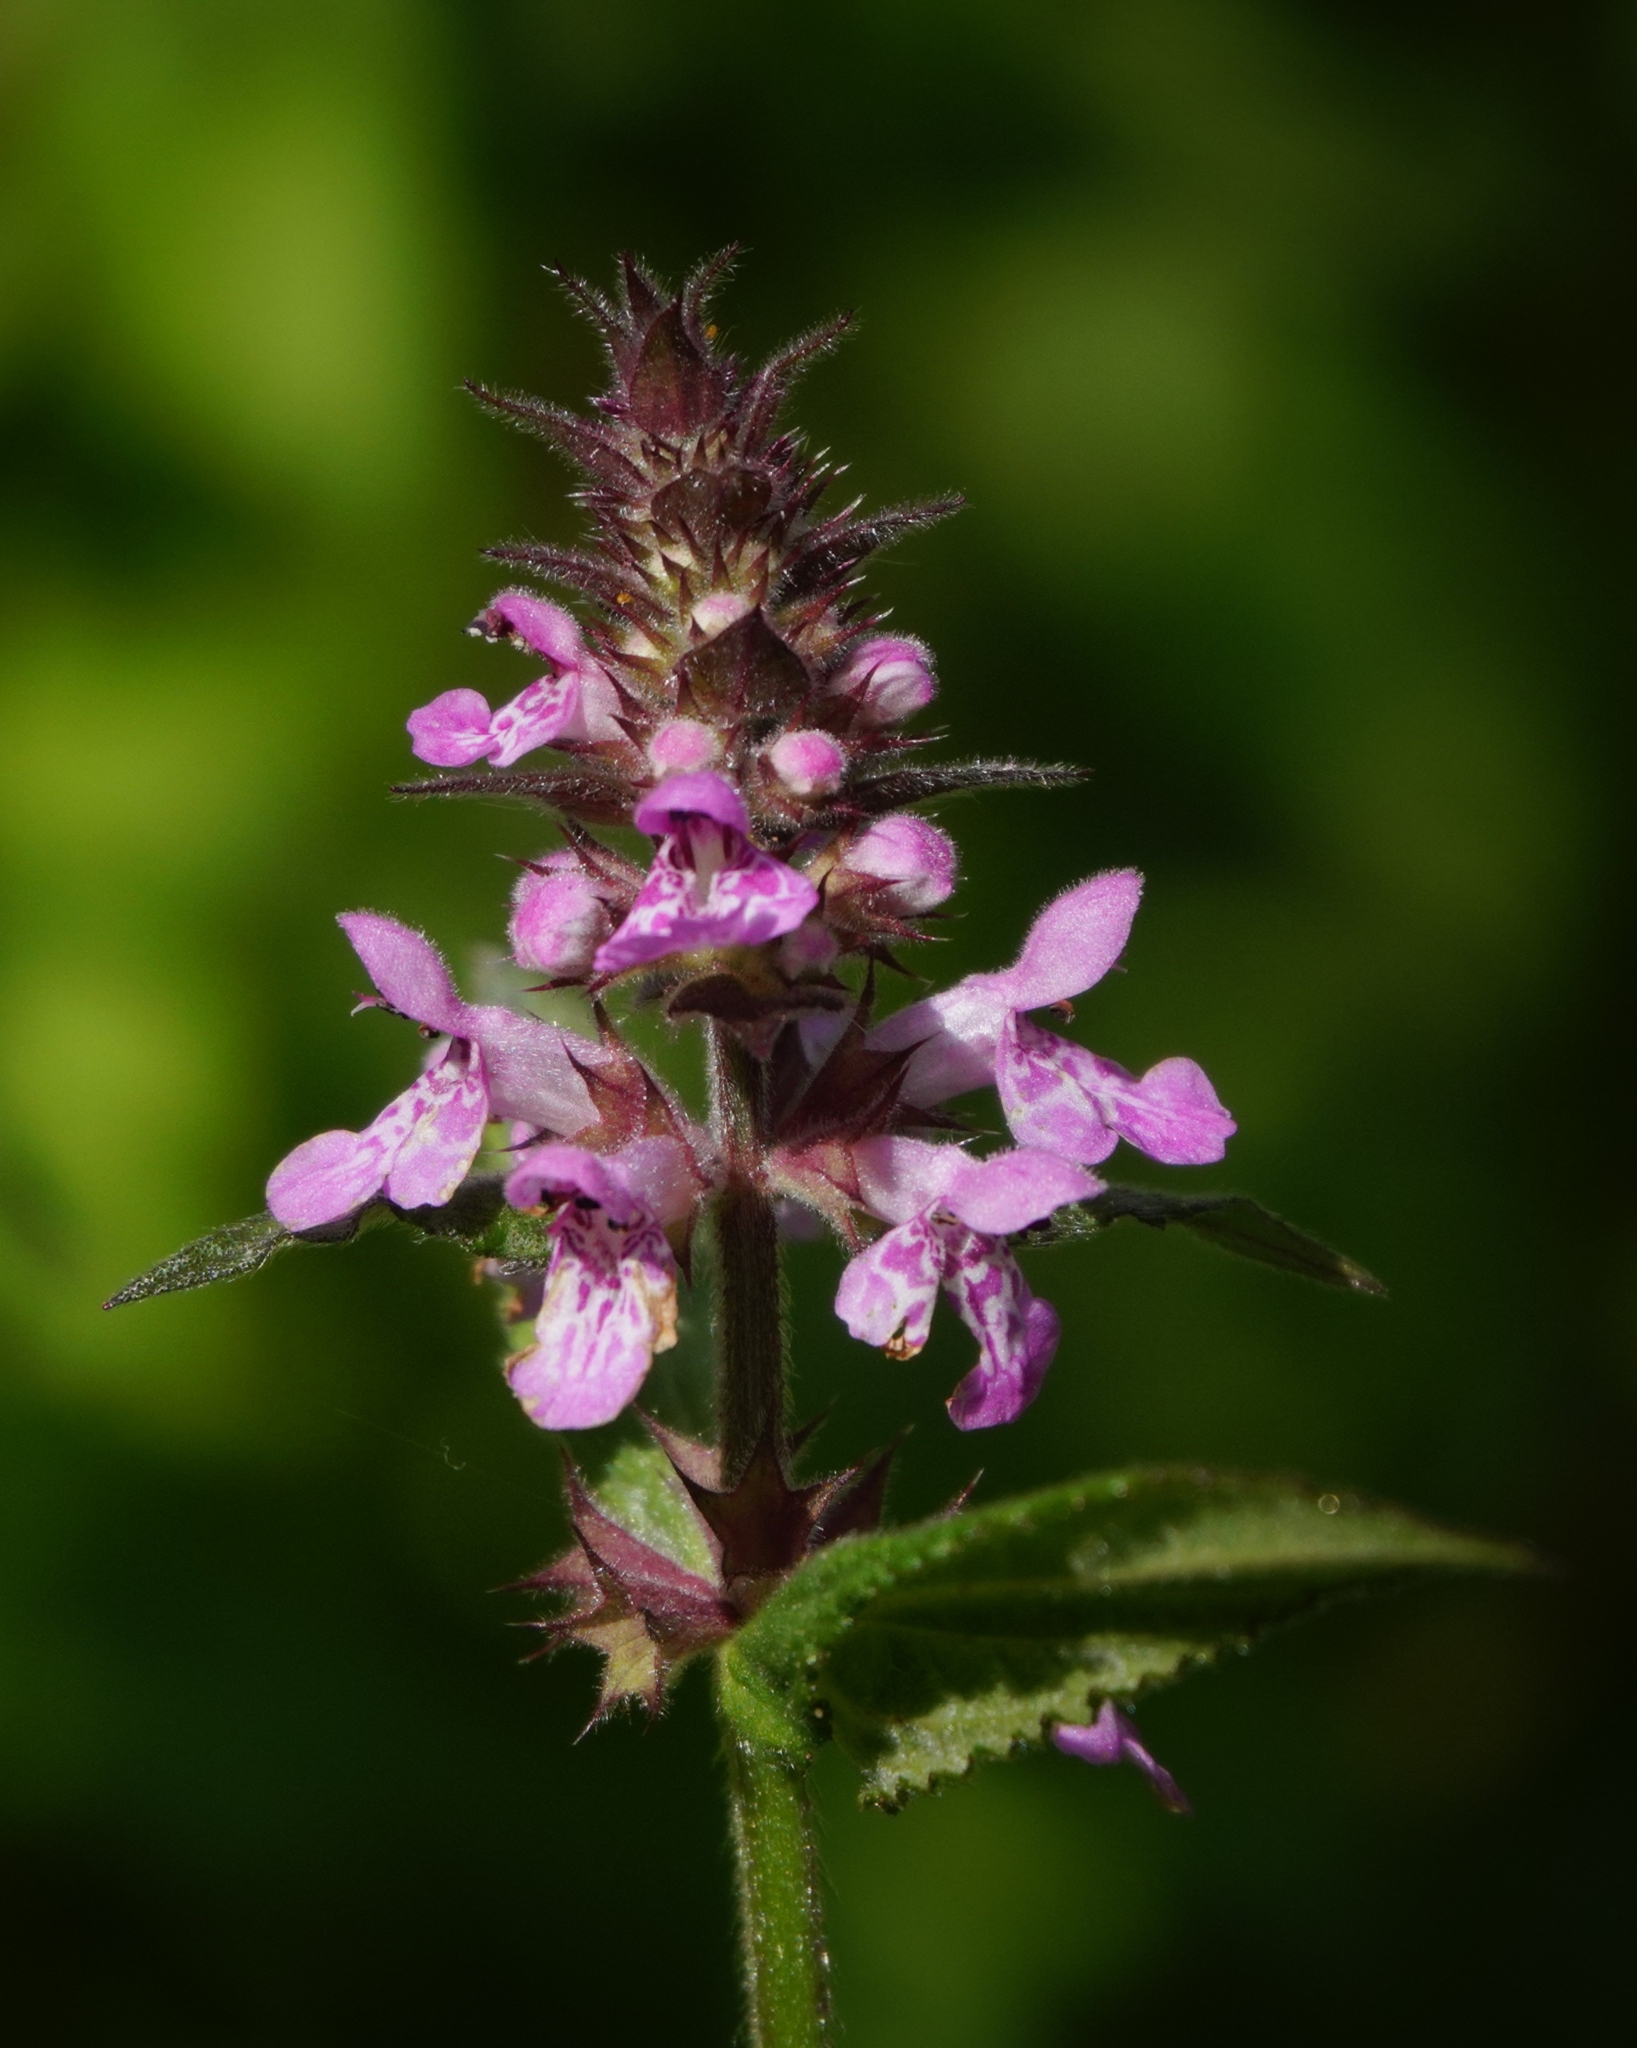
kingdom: Plantae
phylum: Tracheophyta
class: Magnoliopsida
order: Lamiales
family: Lamiaceae
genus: Stachys
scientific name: Stachys palustris
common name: Marsh woundwort
